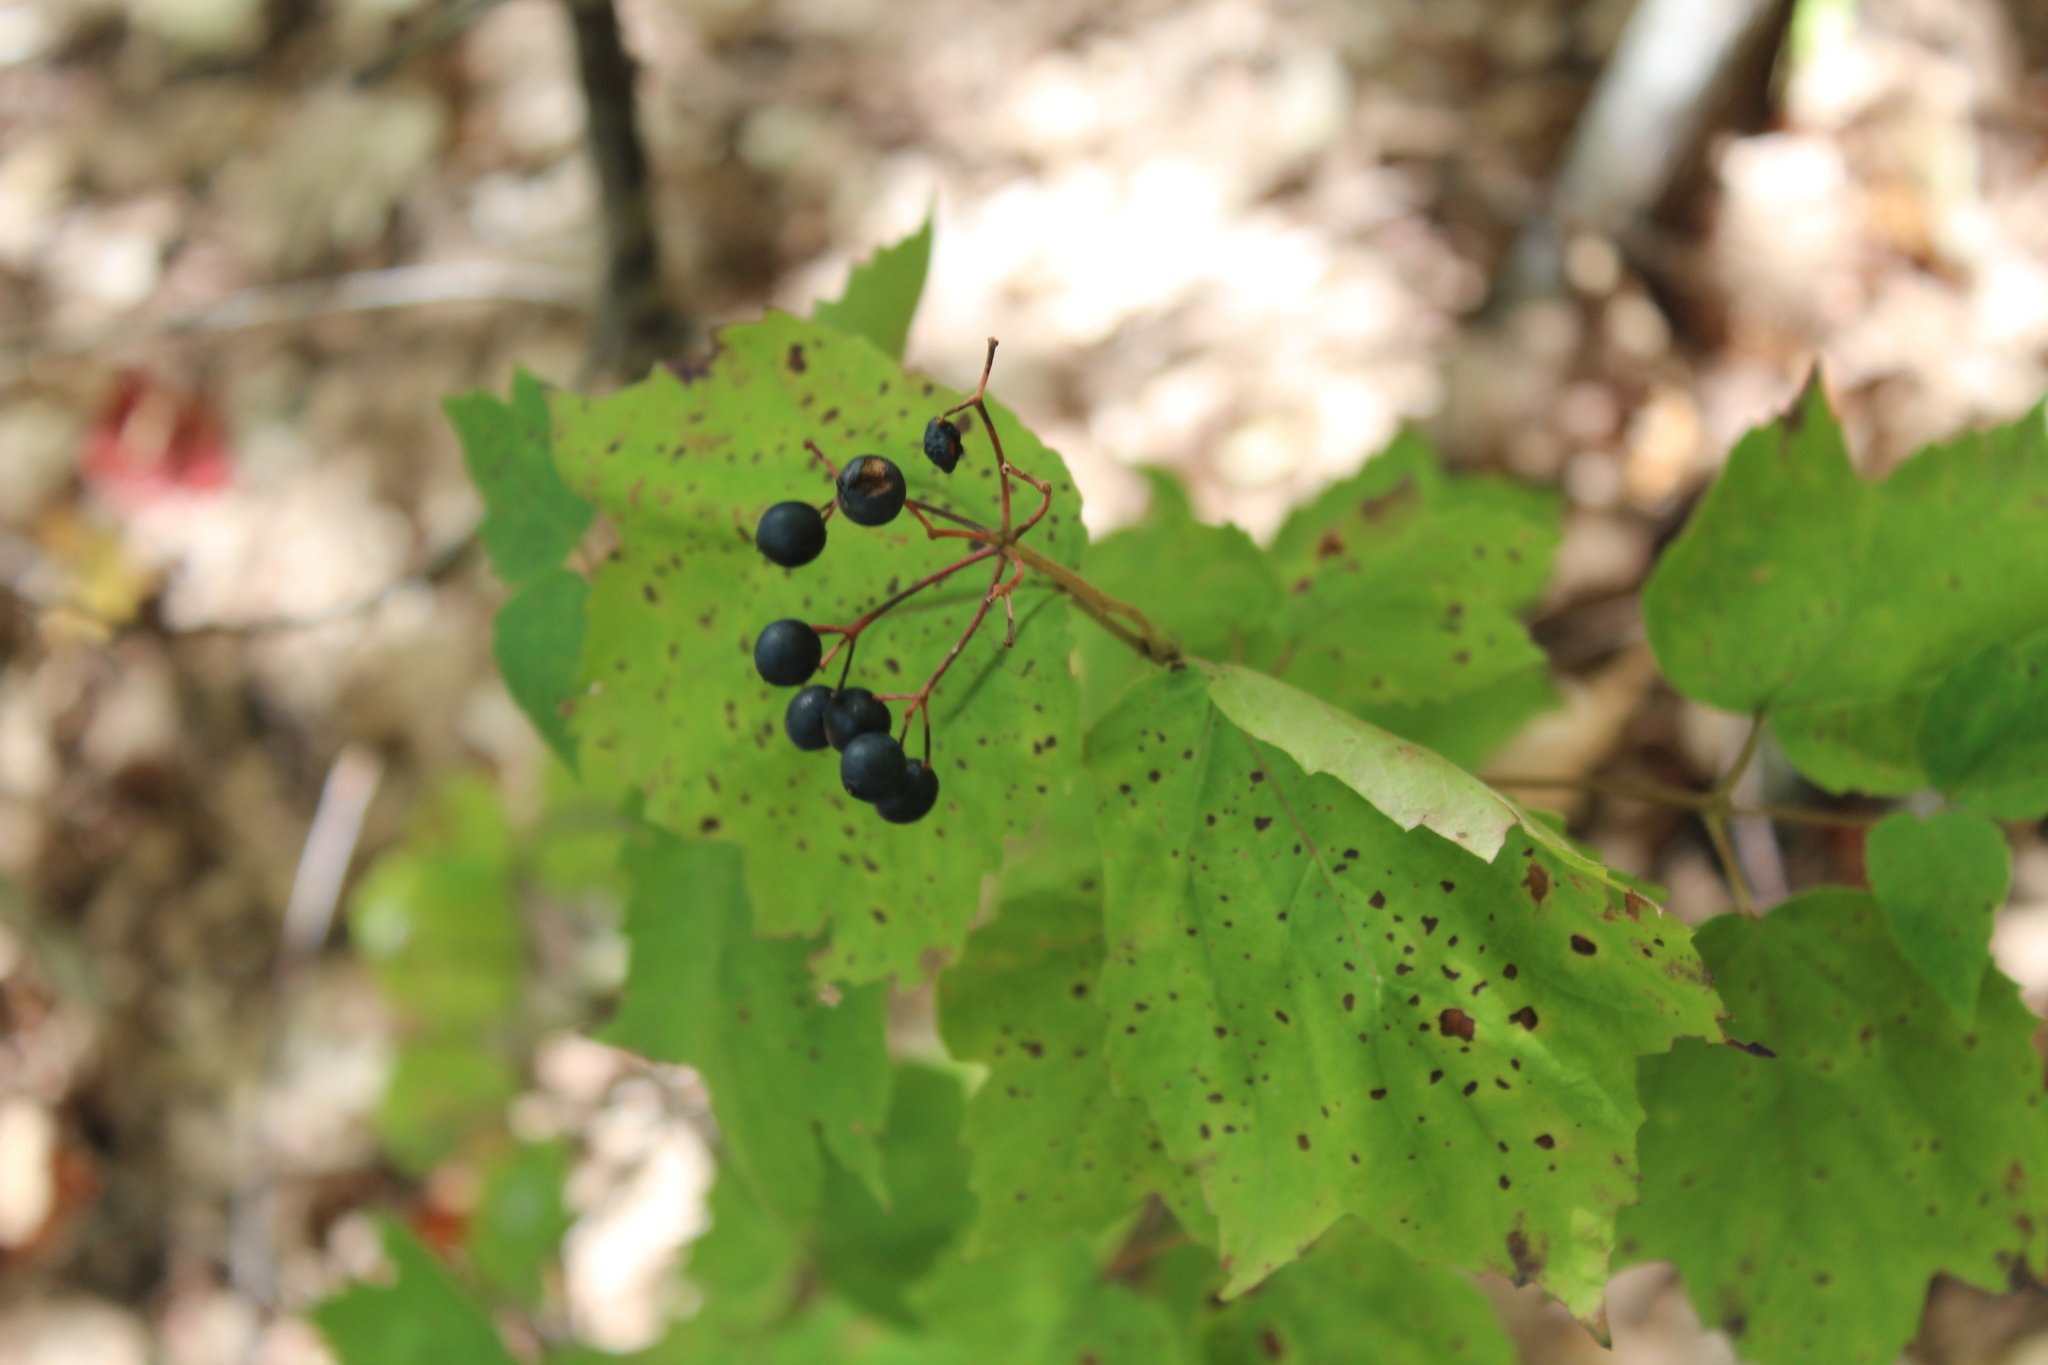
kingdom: Plantae
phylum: Tracheophyta
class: Magnoliopsida
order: Dipsacales
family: Viburnaceae
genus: Viburnum
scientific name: Viburnum acerifolium
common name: Dockmackie
